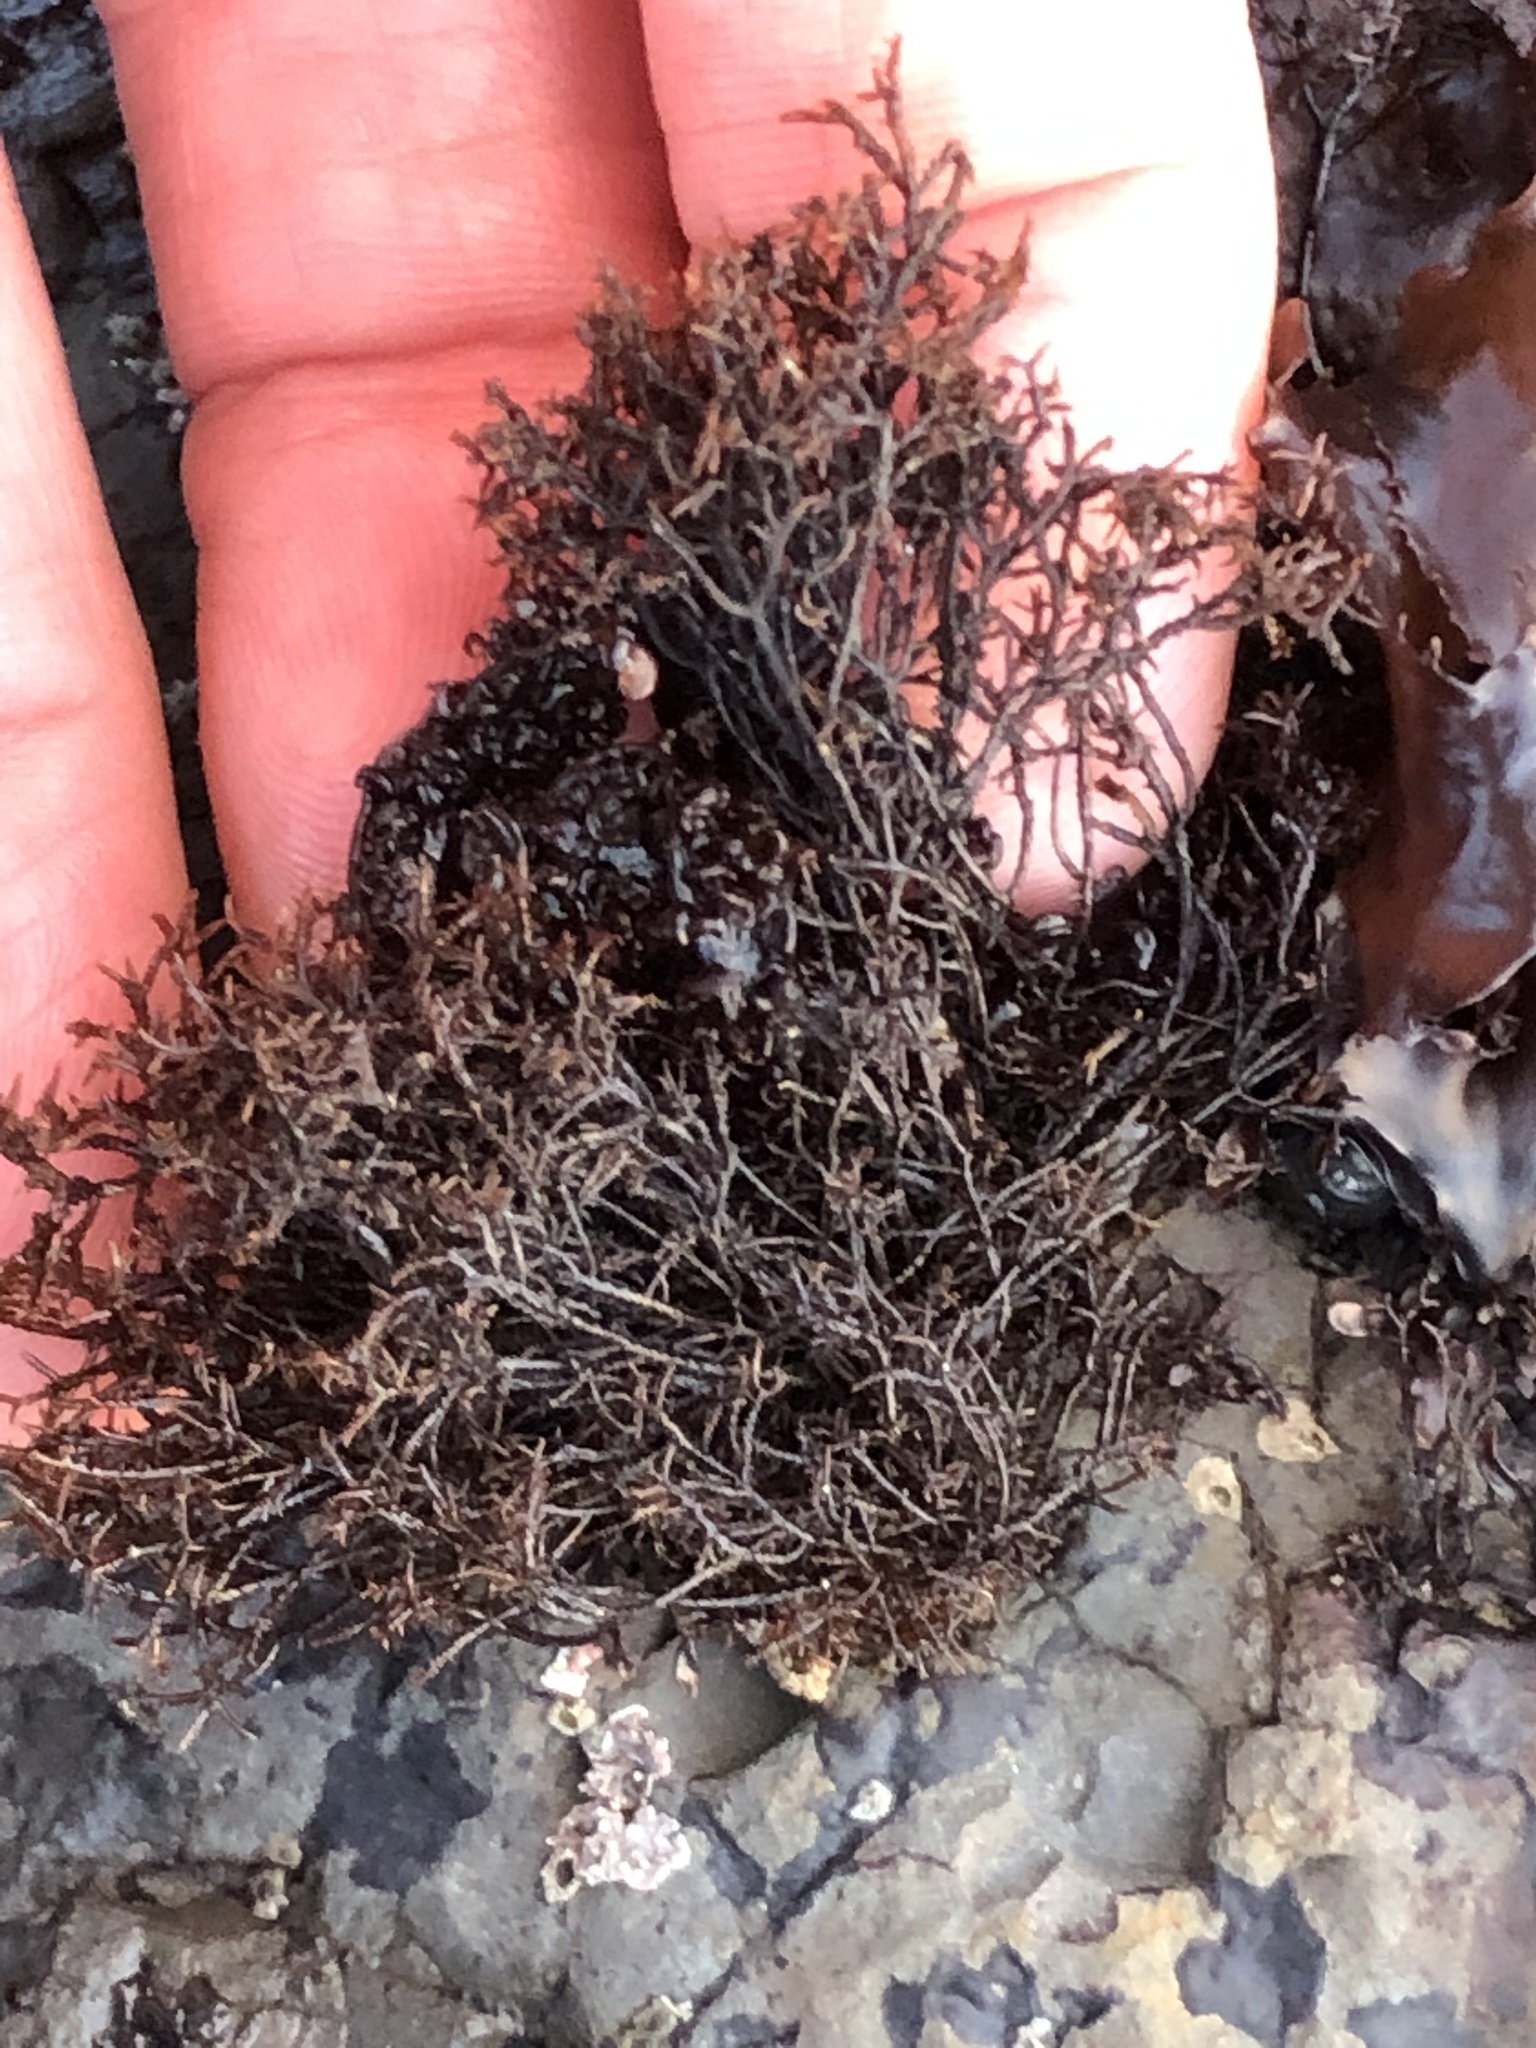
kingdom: Plantae
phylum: Rhodophyta
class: Florideophyceae
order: Gigartinales
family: Endocladiaceae
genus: Endocladia
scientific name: Endocladia muricata
